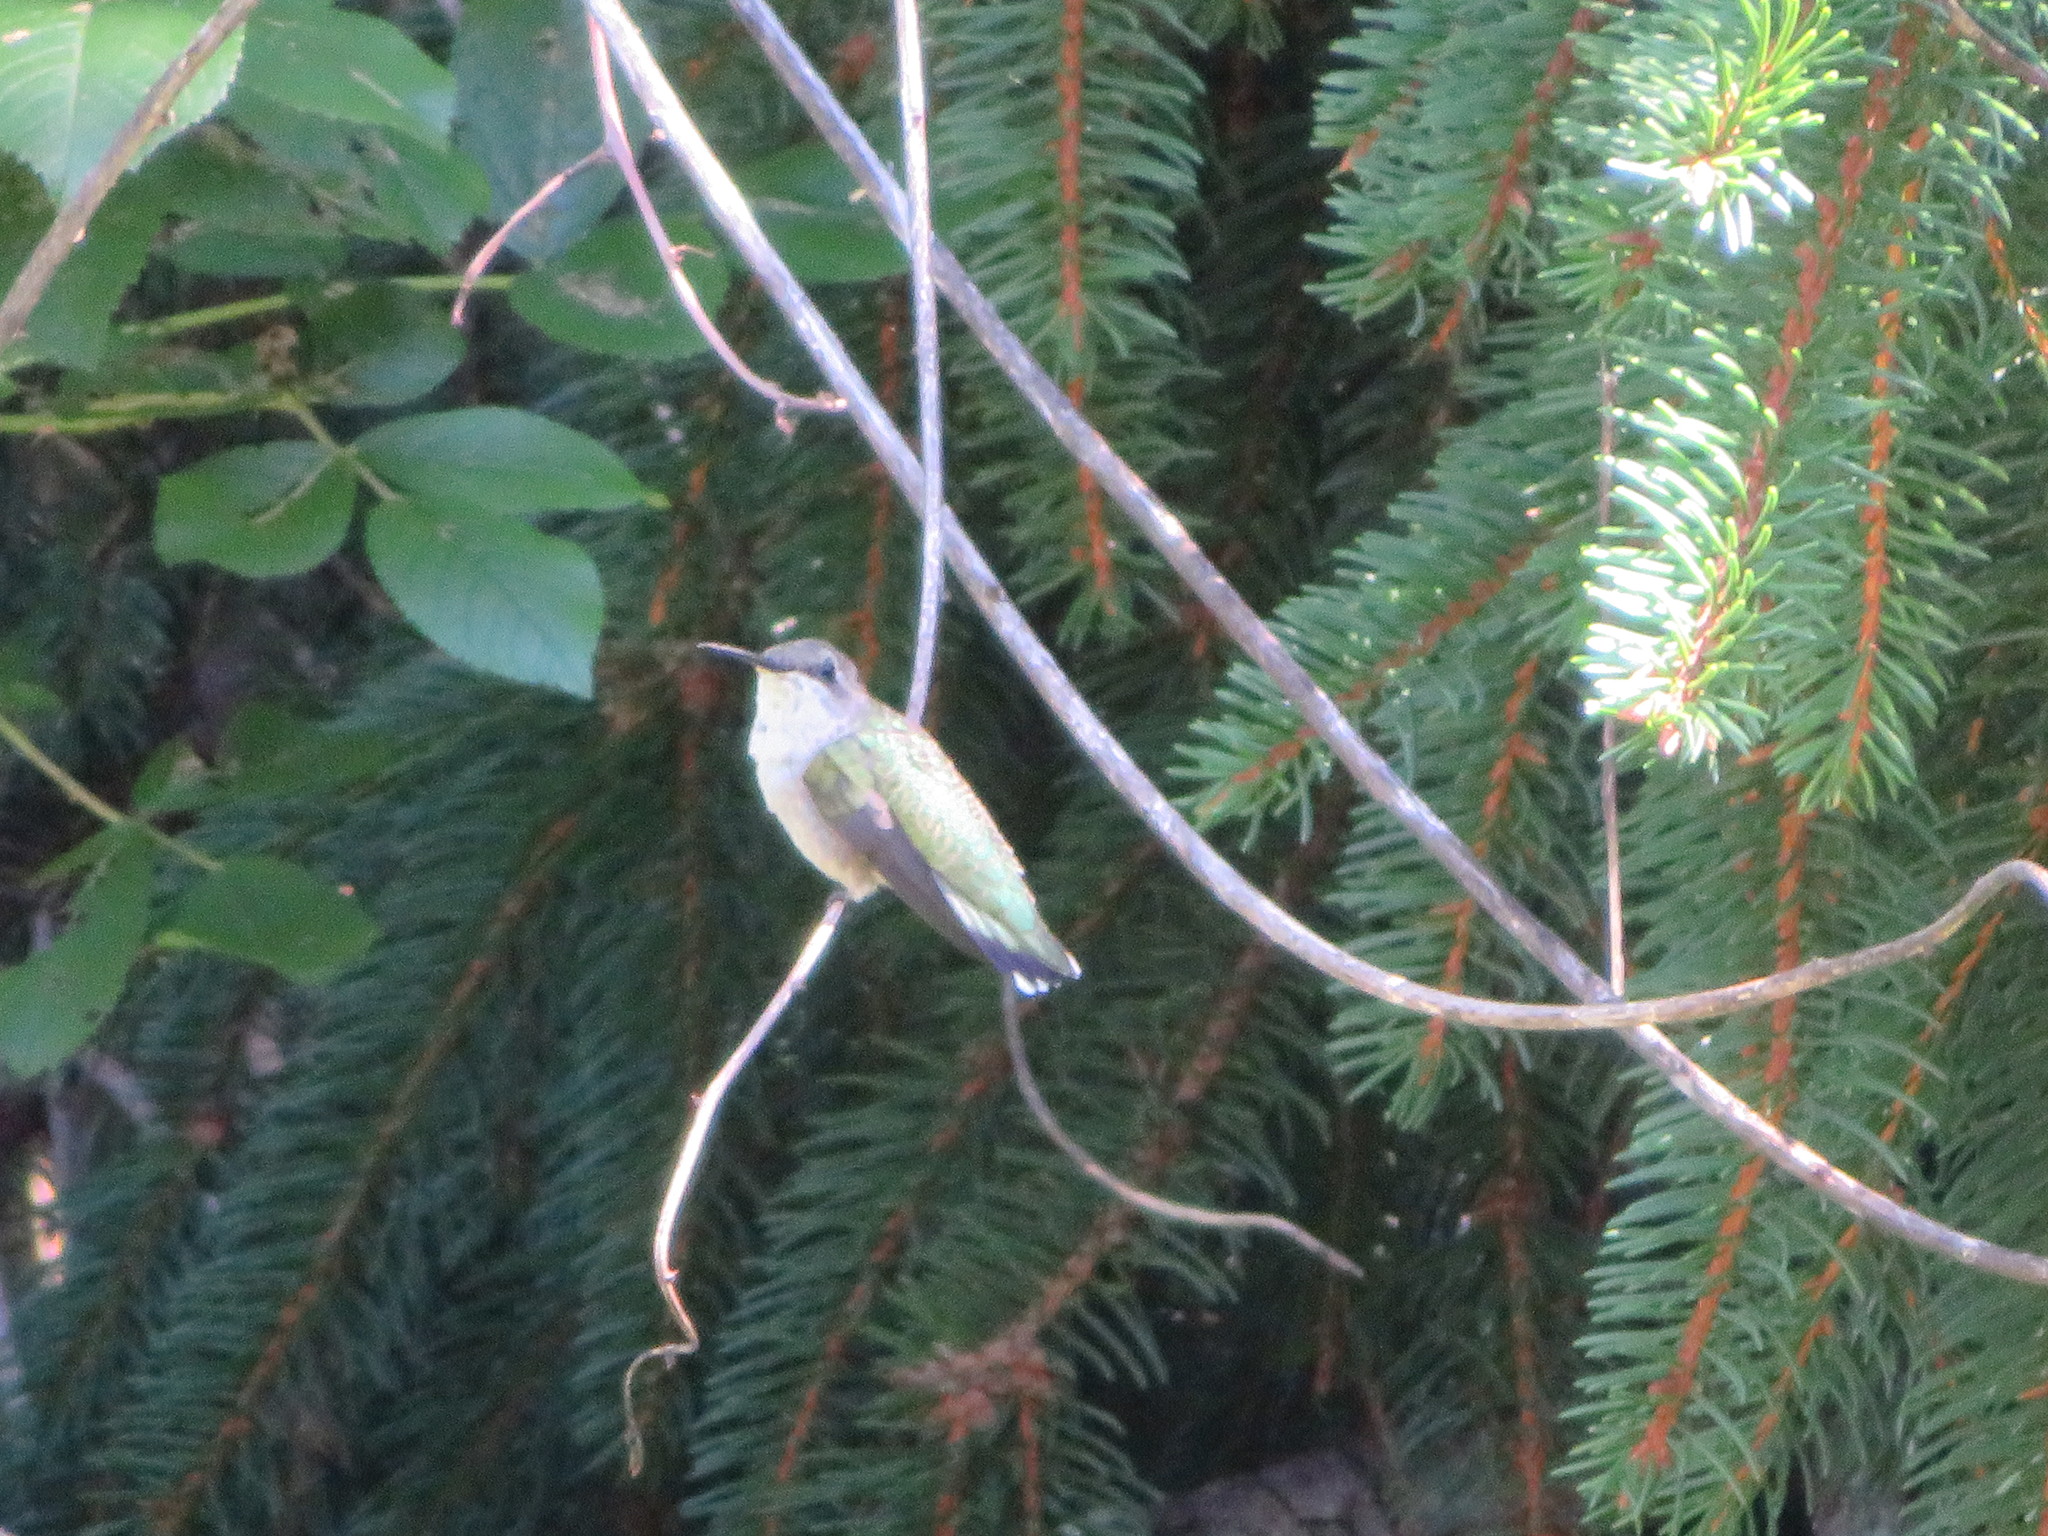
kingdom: Animalia
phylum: Chordata
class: Aves
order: Apodiformes
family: Trochilidae
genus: Archilochus
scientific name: Archilochus colubris
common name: Ruby-throated hummingbird
